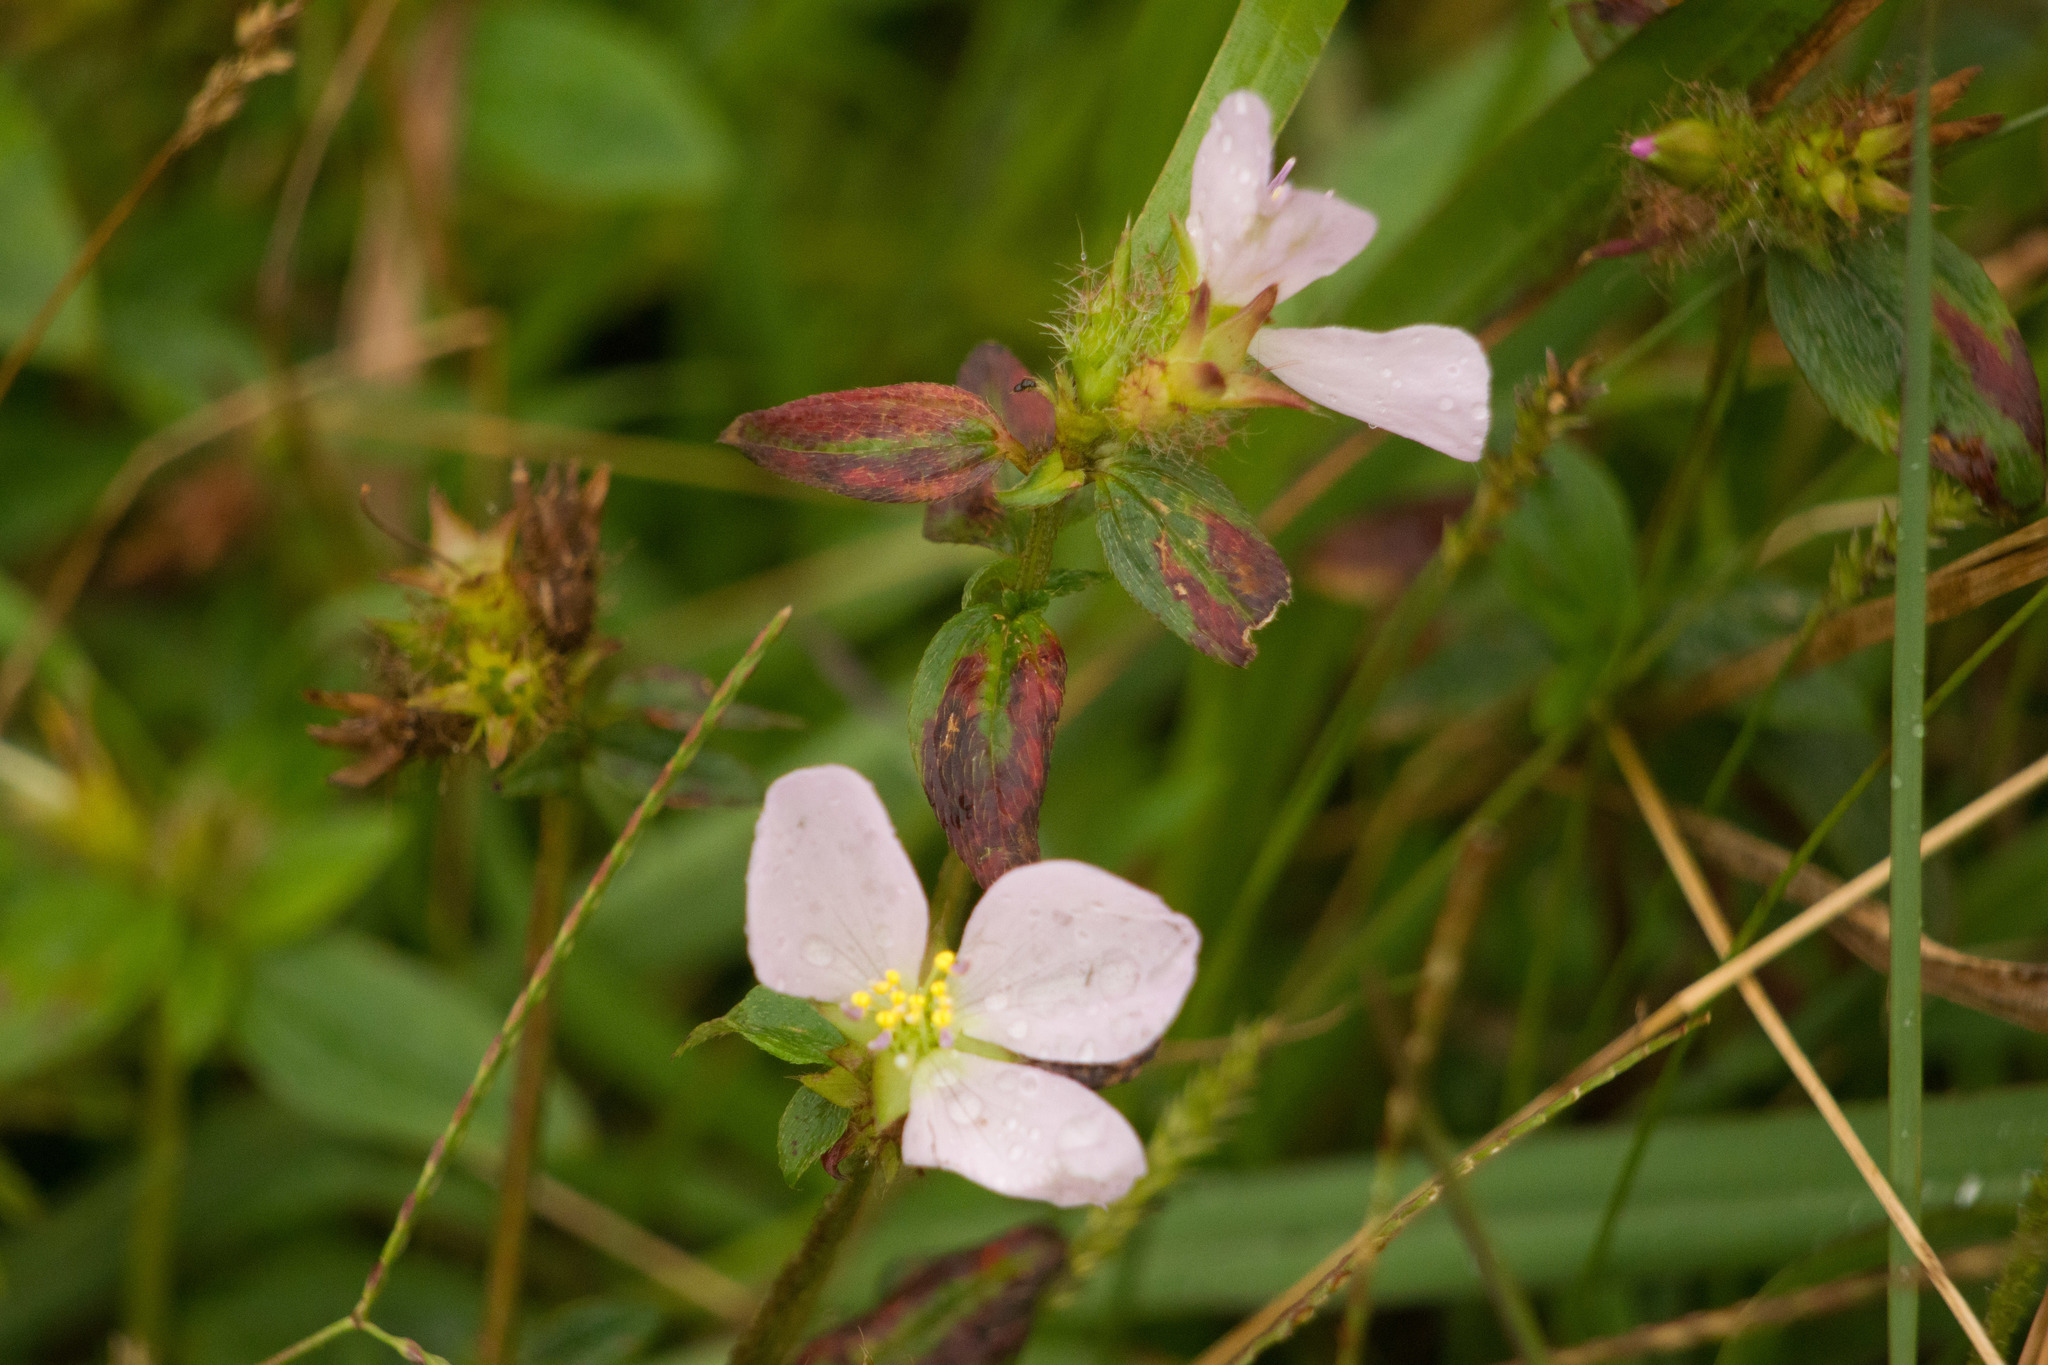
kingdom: Plantae
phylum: Tracheophyta
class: Magnoliopsida
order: Myrtales
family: Melastomataceae
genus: Pterolepis
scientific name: Pterolepis glomerata
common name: False meadowbeauty
